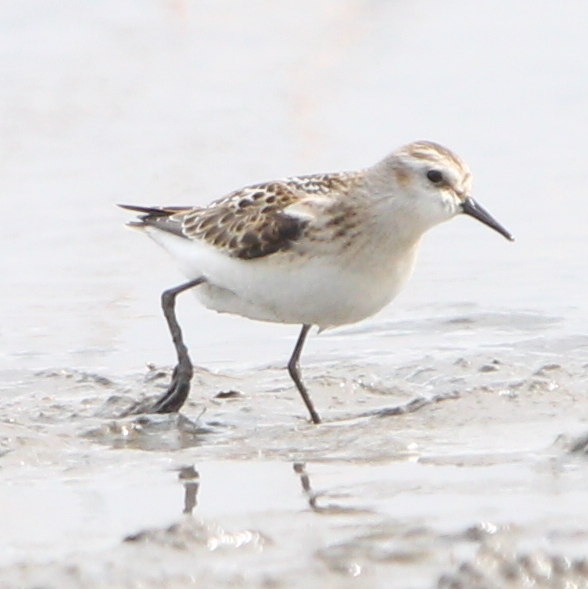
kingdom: Animalia
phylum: Chordata
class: Aves
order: Charadriiformes
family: Scolopacidae
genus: Calidris
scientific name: Calidris minuta
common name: Little stint
